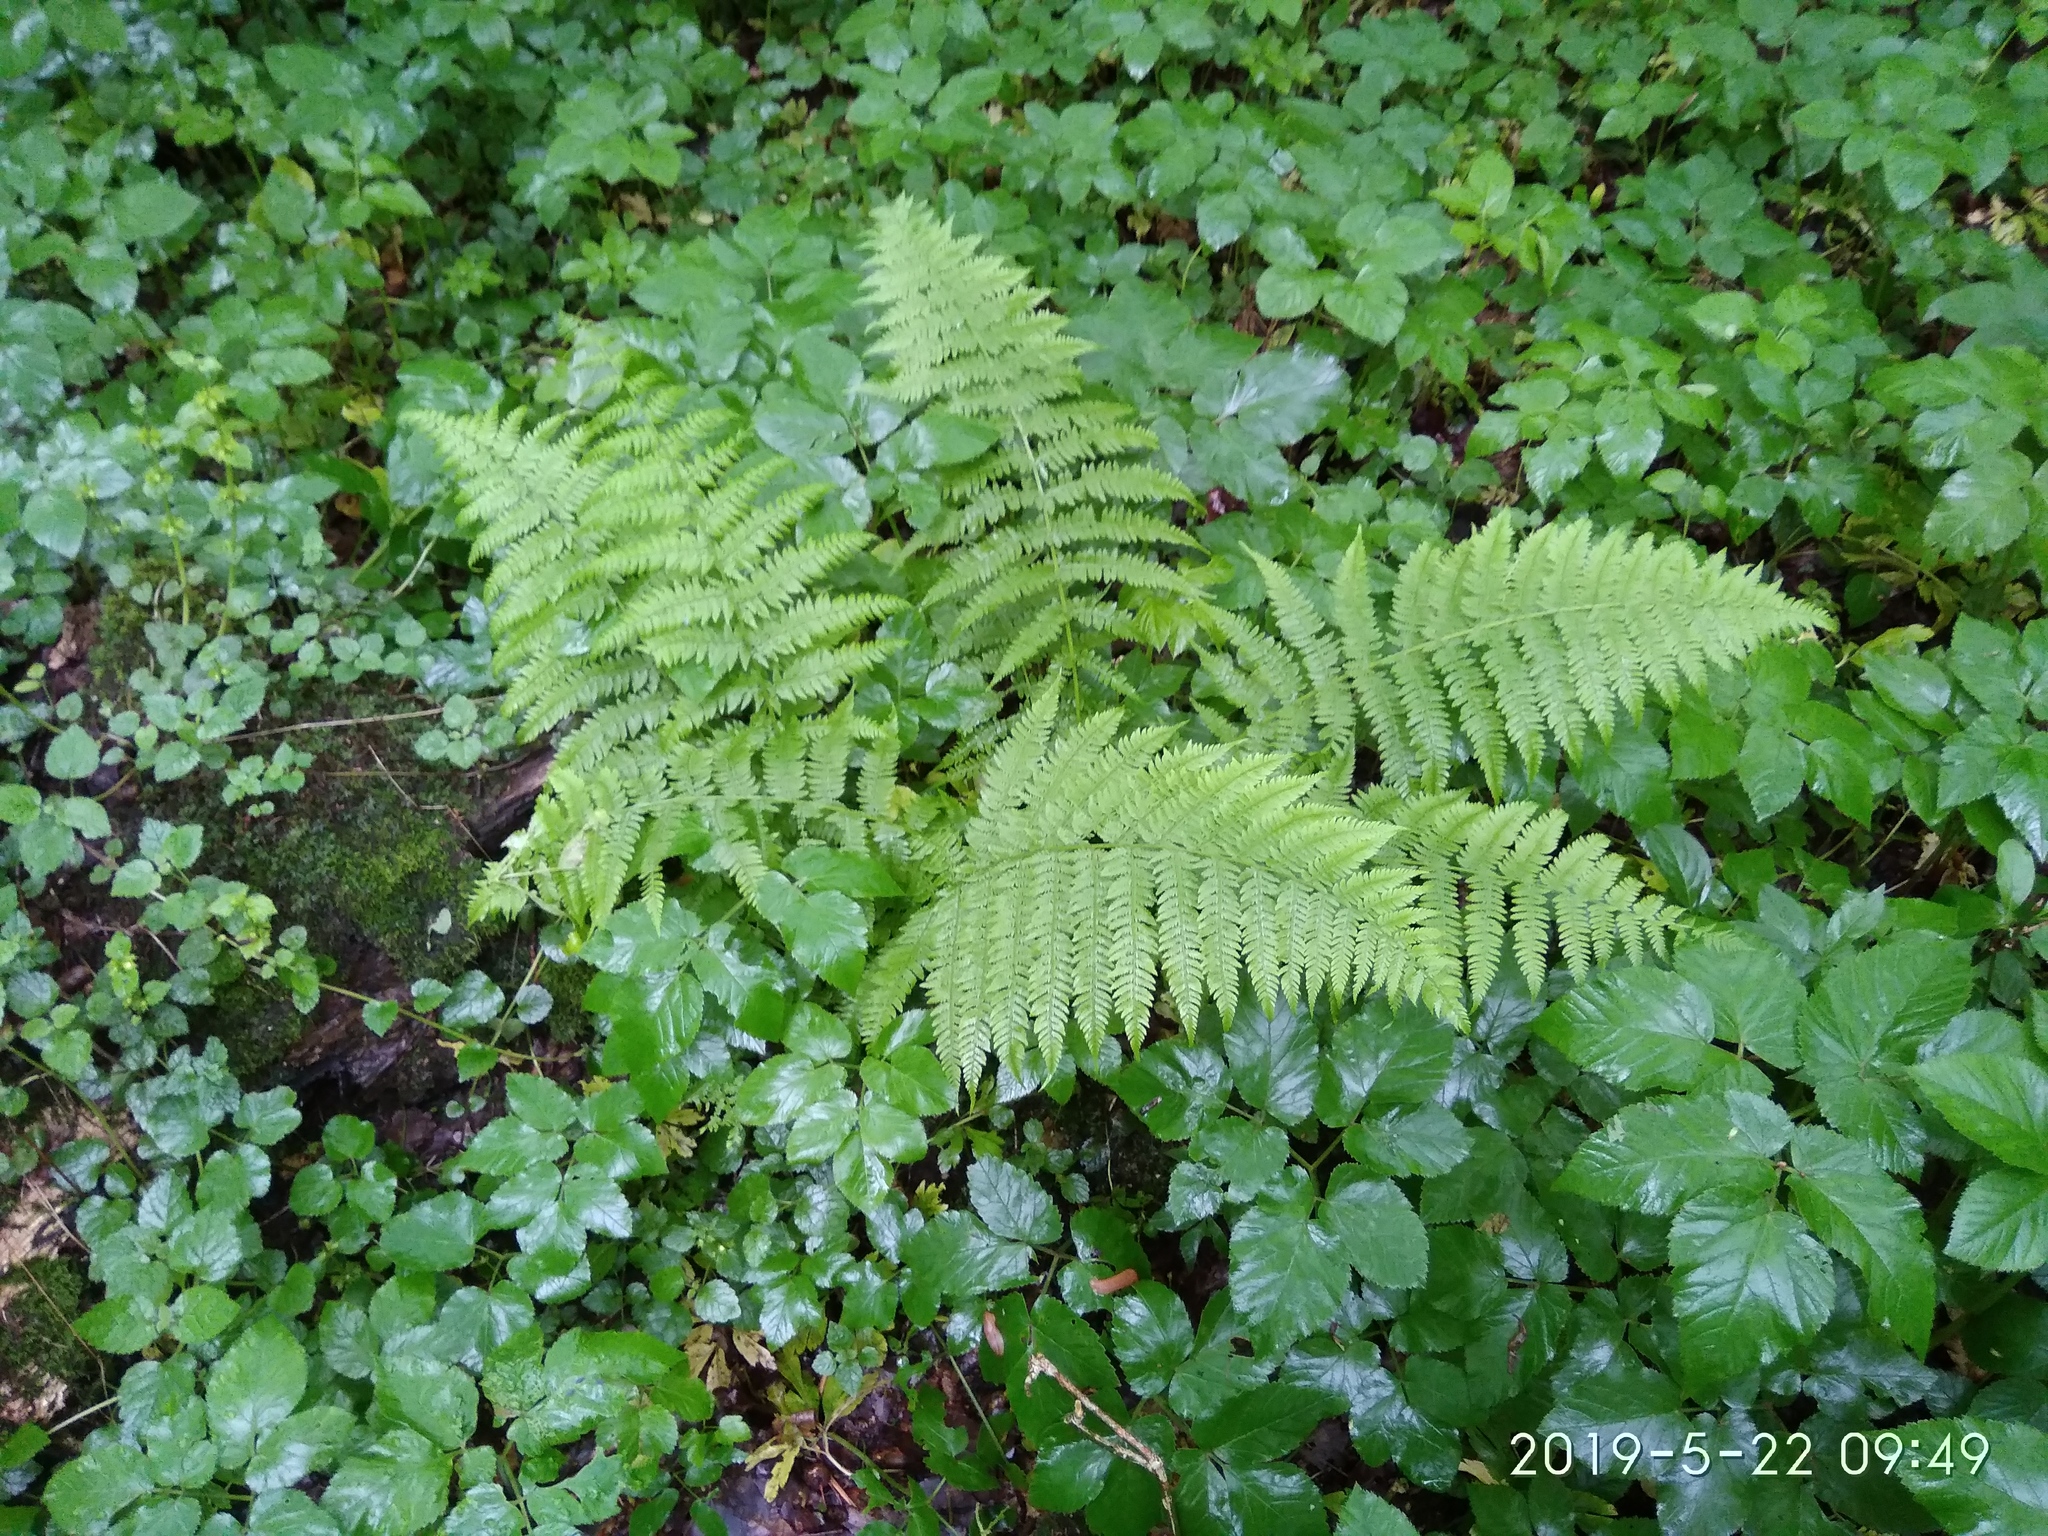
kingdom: Plantae
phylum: Tracheophyta
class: Polypodiopsida
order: Polypodiales
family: Athyriaceae
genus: Athyrium
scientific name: Athyrium filix-femina
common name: Lady fern
